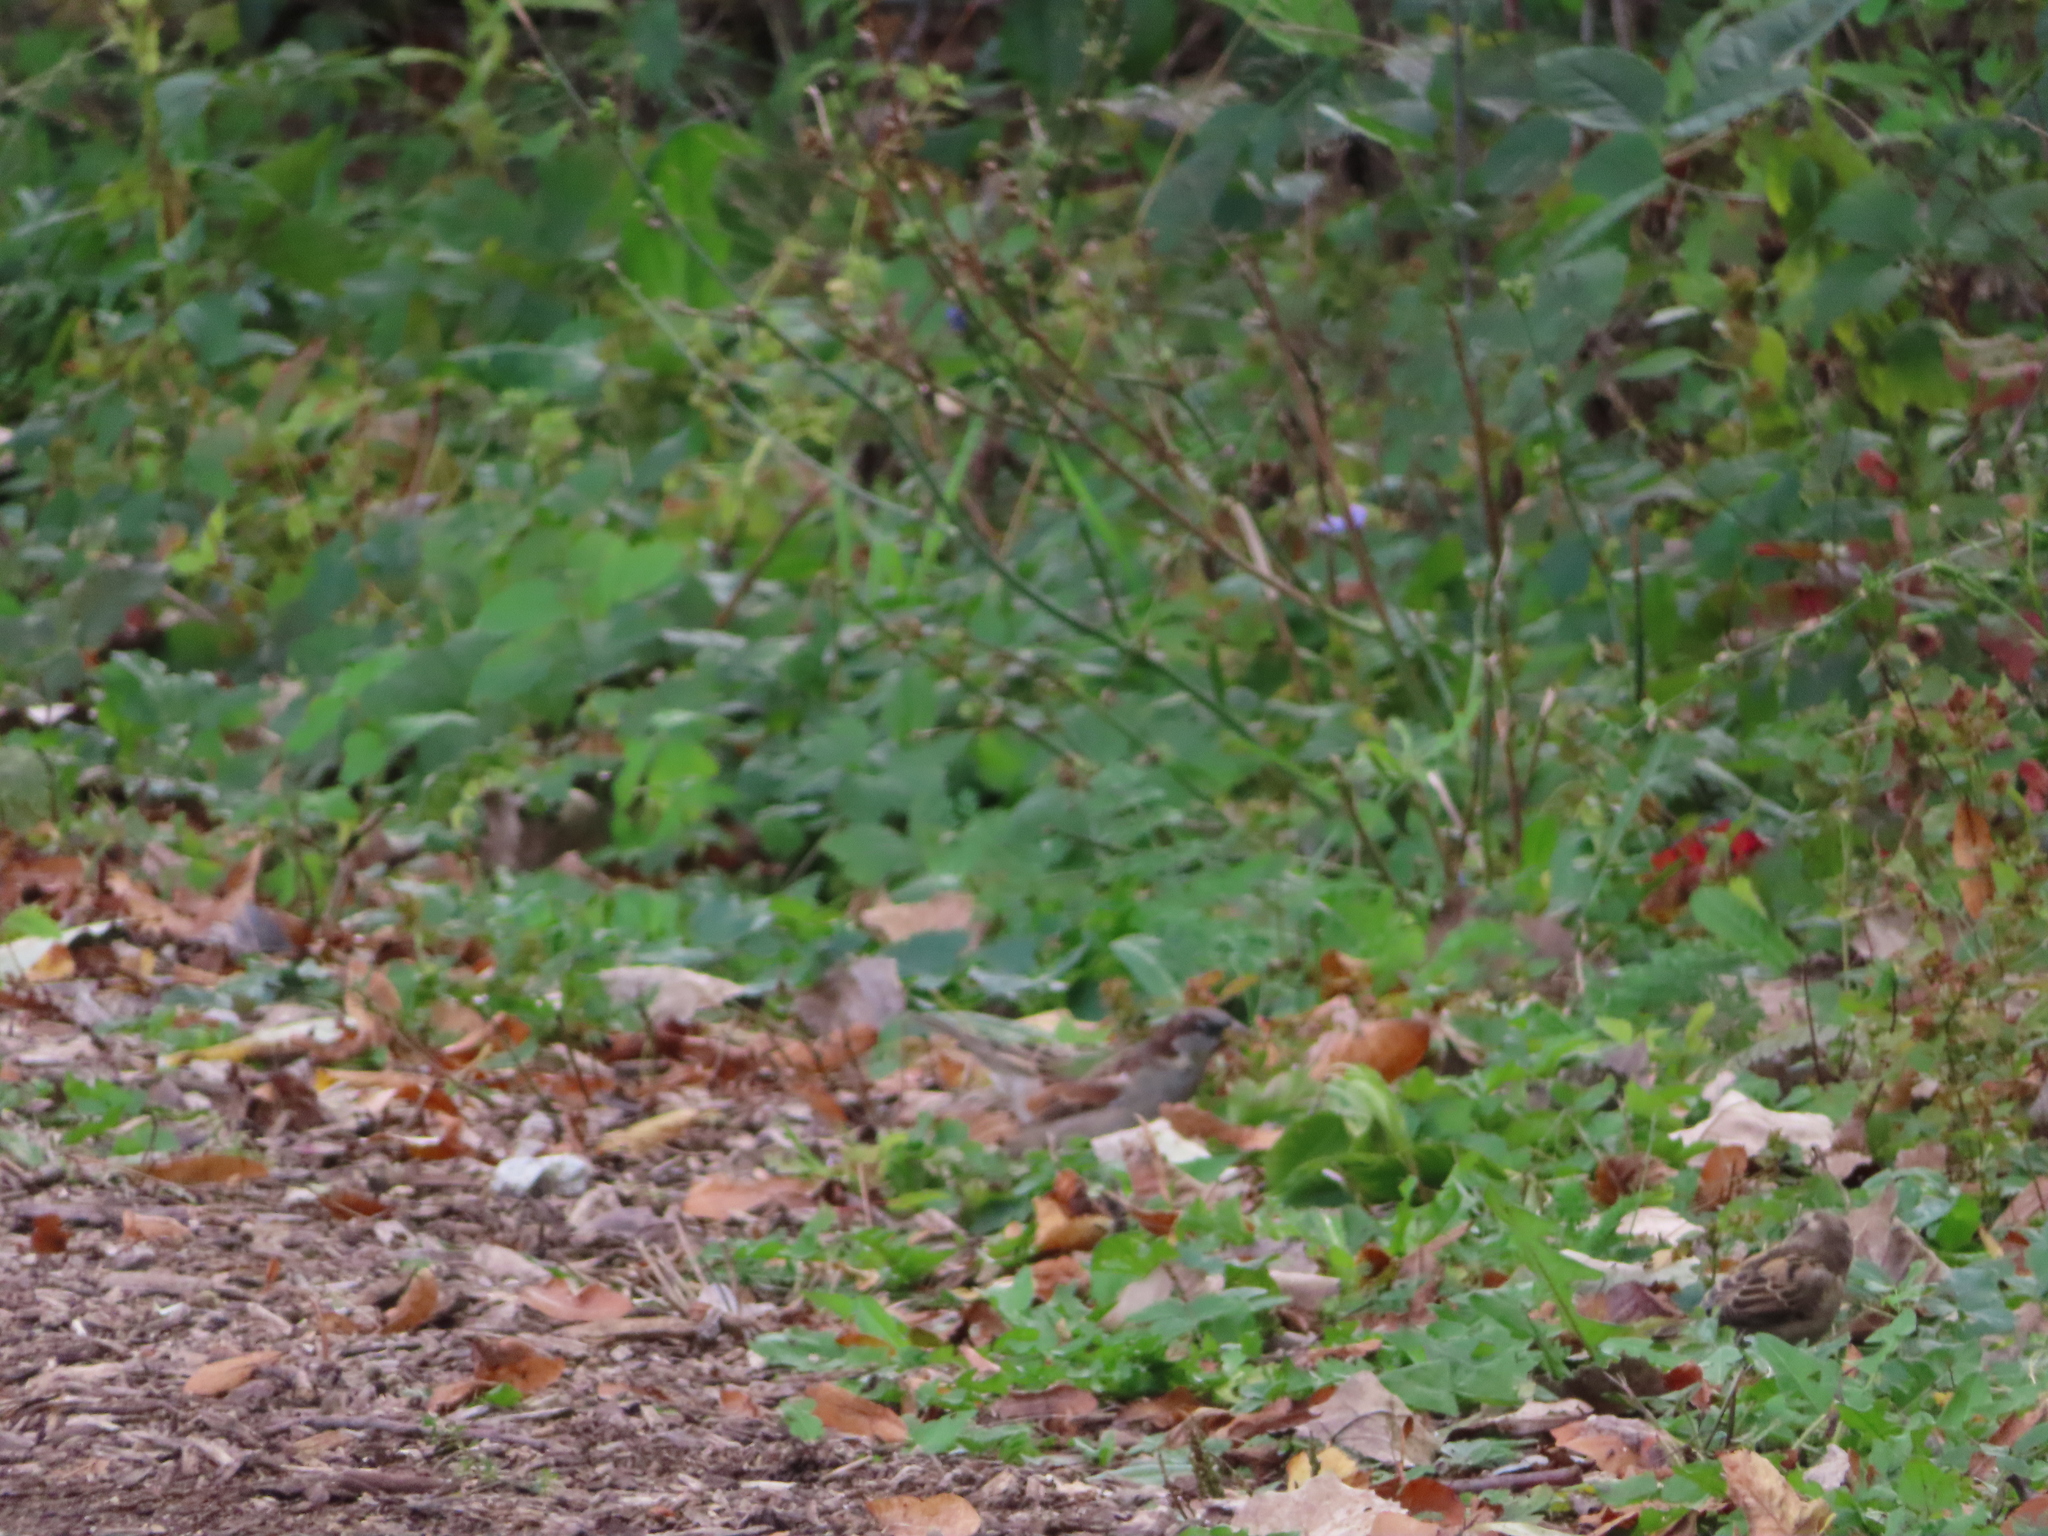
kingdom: Animalia
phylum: Chordata
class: Aves
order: Passeriformes
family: Passeridae
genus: Passer
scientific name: Passer domesticus
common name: House sparrow
